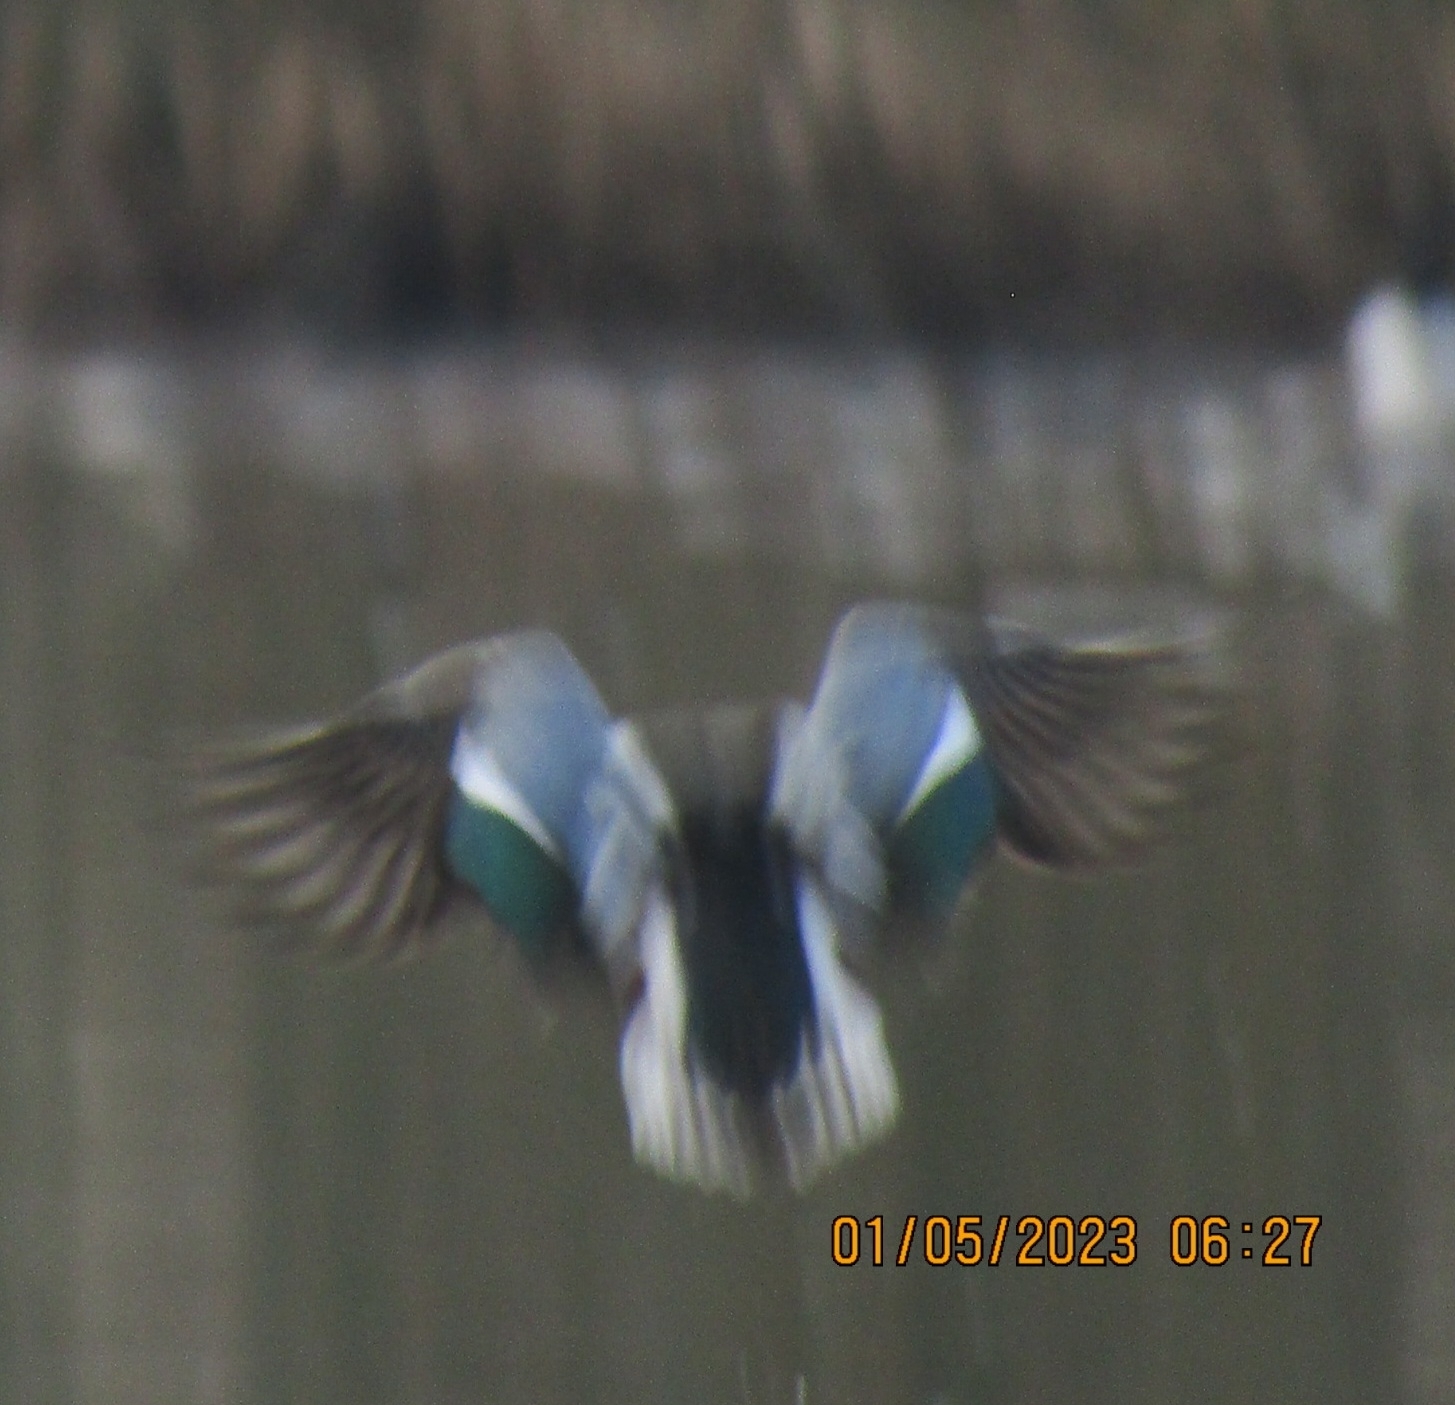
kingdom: Animalia
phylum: Chordata
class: Aves
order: Anseriformes
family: Anatidae
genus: Spatula
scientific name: Spatula clypeata
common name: Northern shoveler
